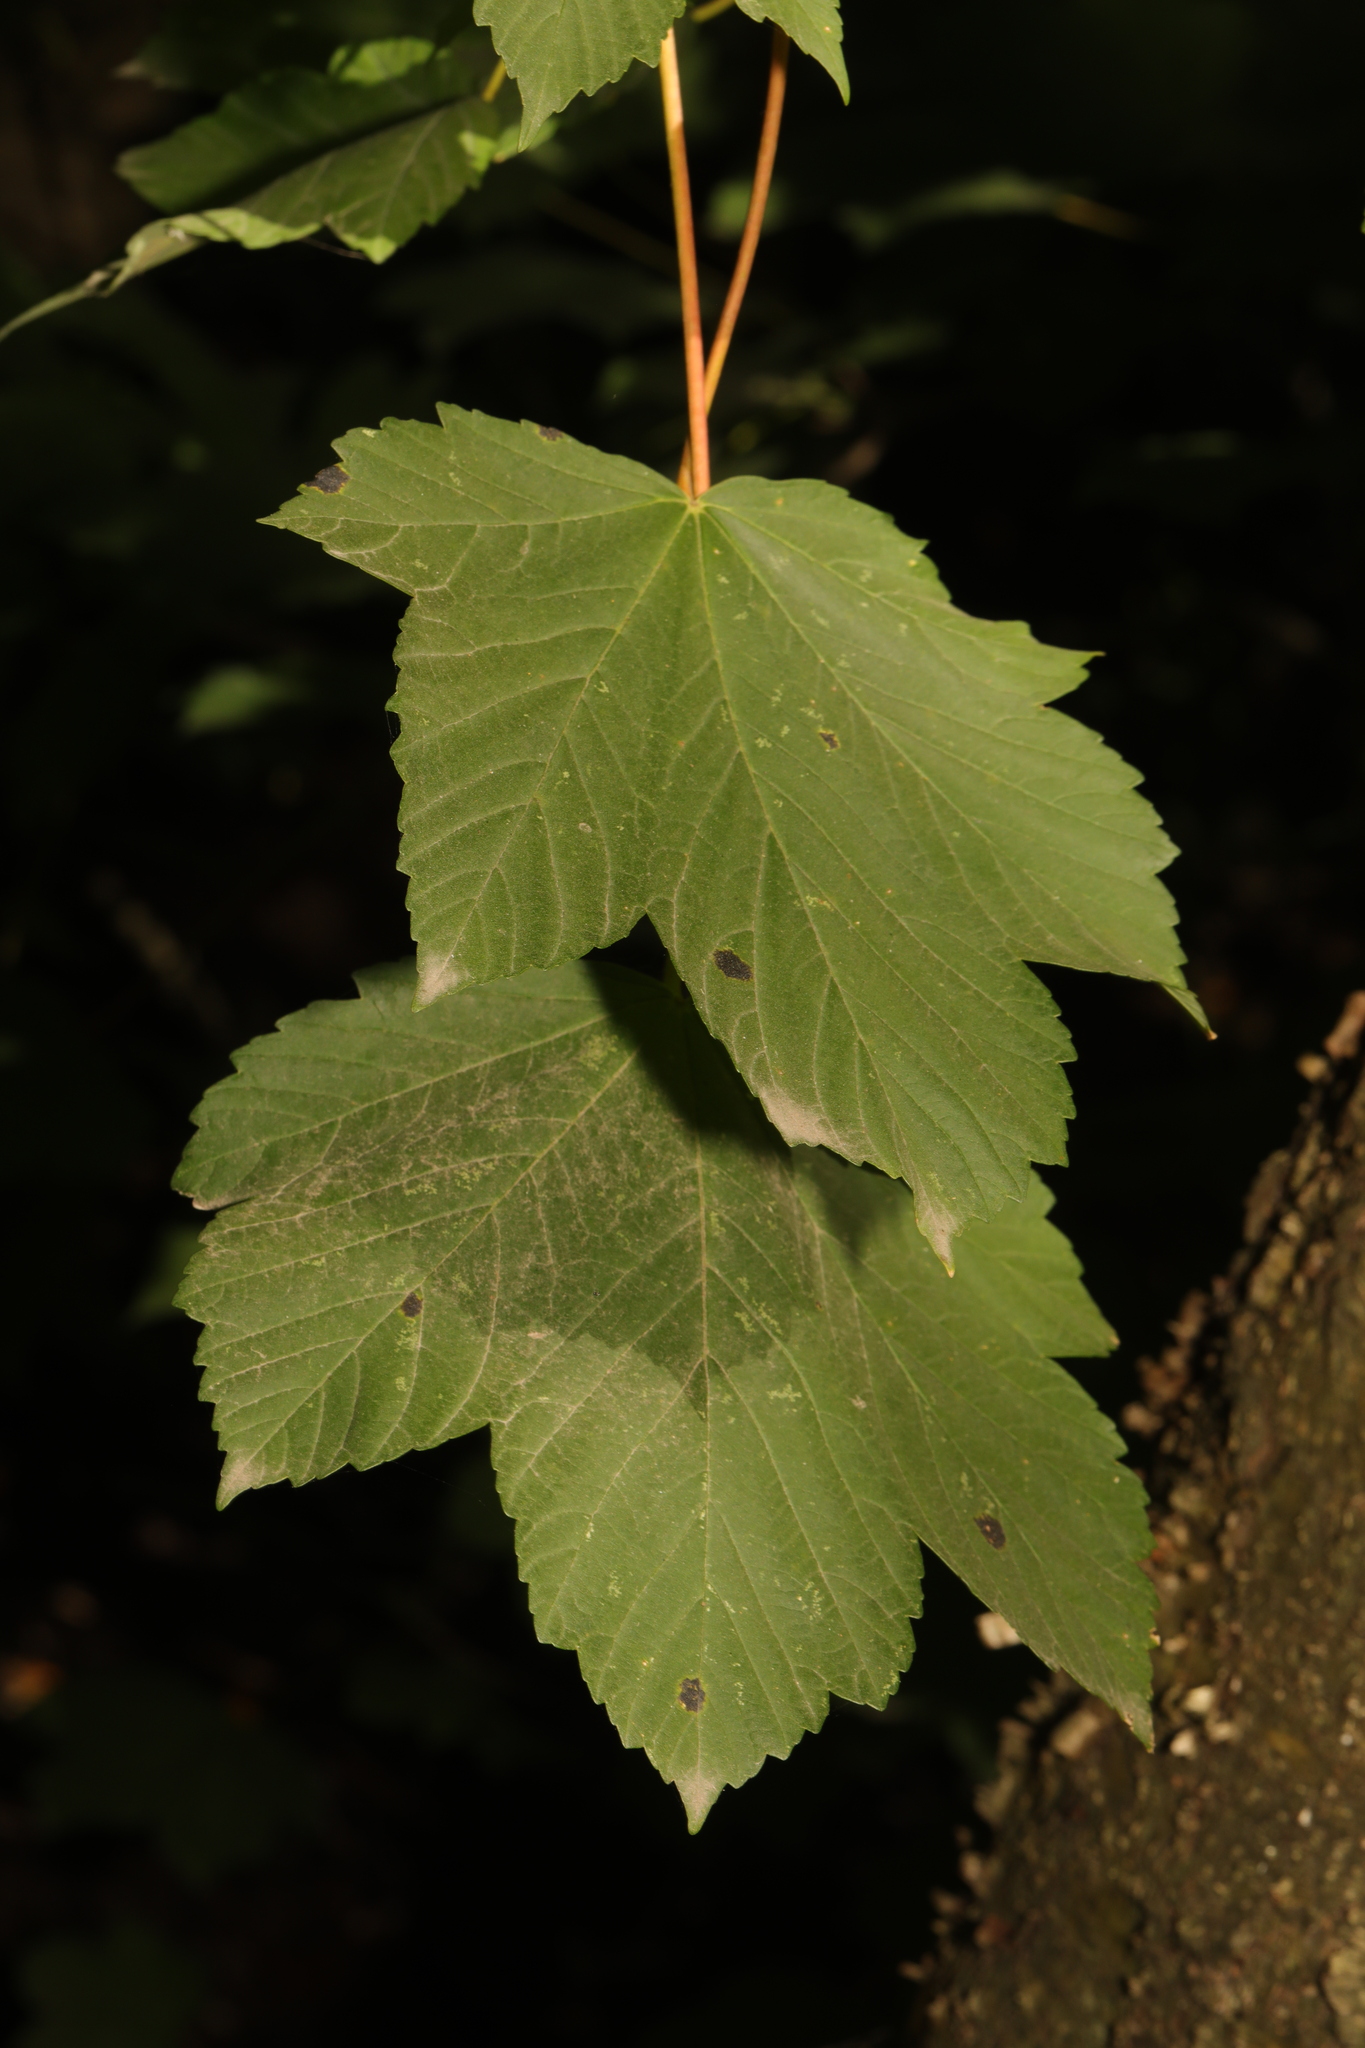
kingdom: Plantae
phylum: Tracheophyta
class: Magnoliopsida
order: Sapindales
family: Sapindaceae
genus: Acer
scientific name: Acer pseudoplatanus
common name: Sycamore
